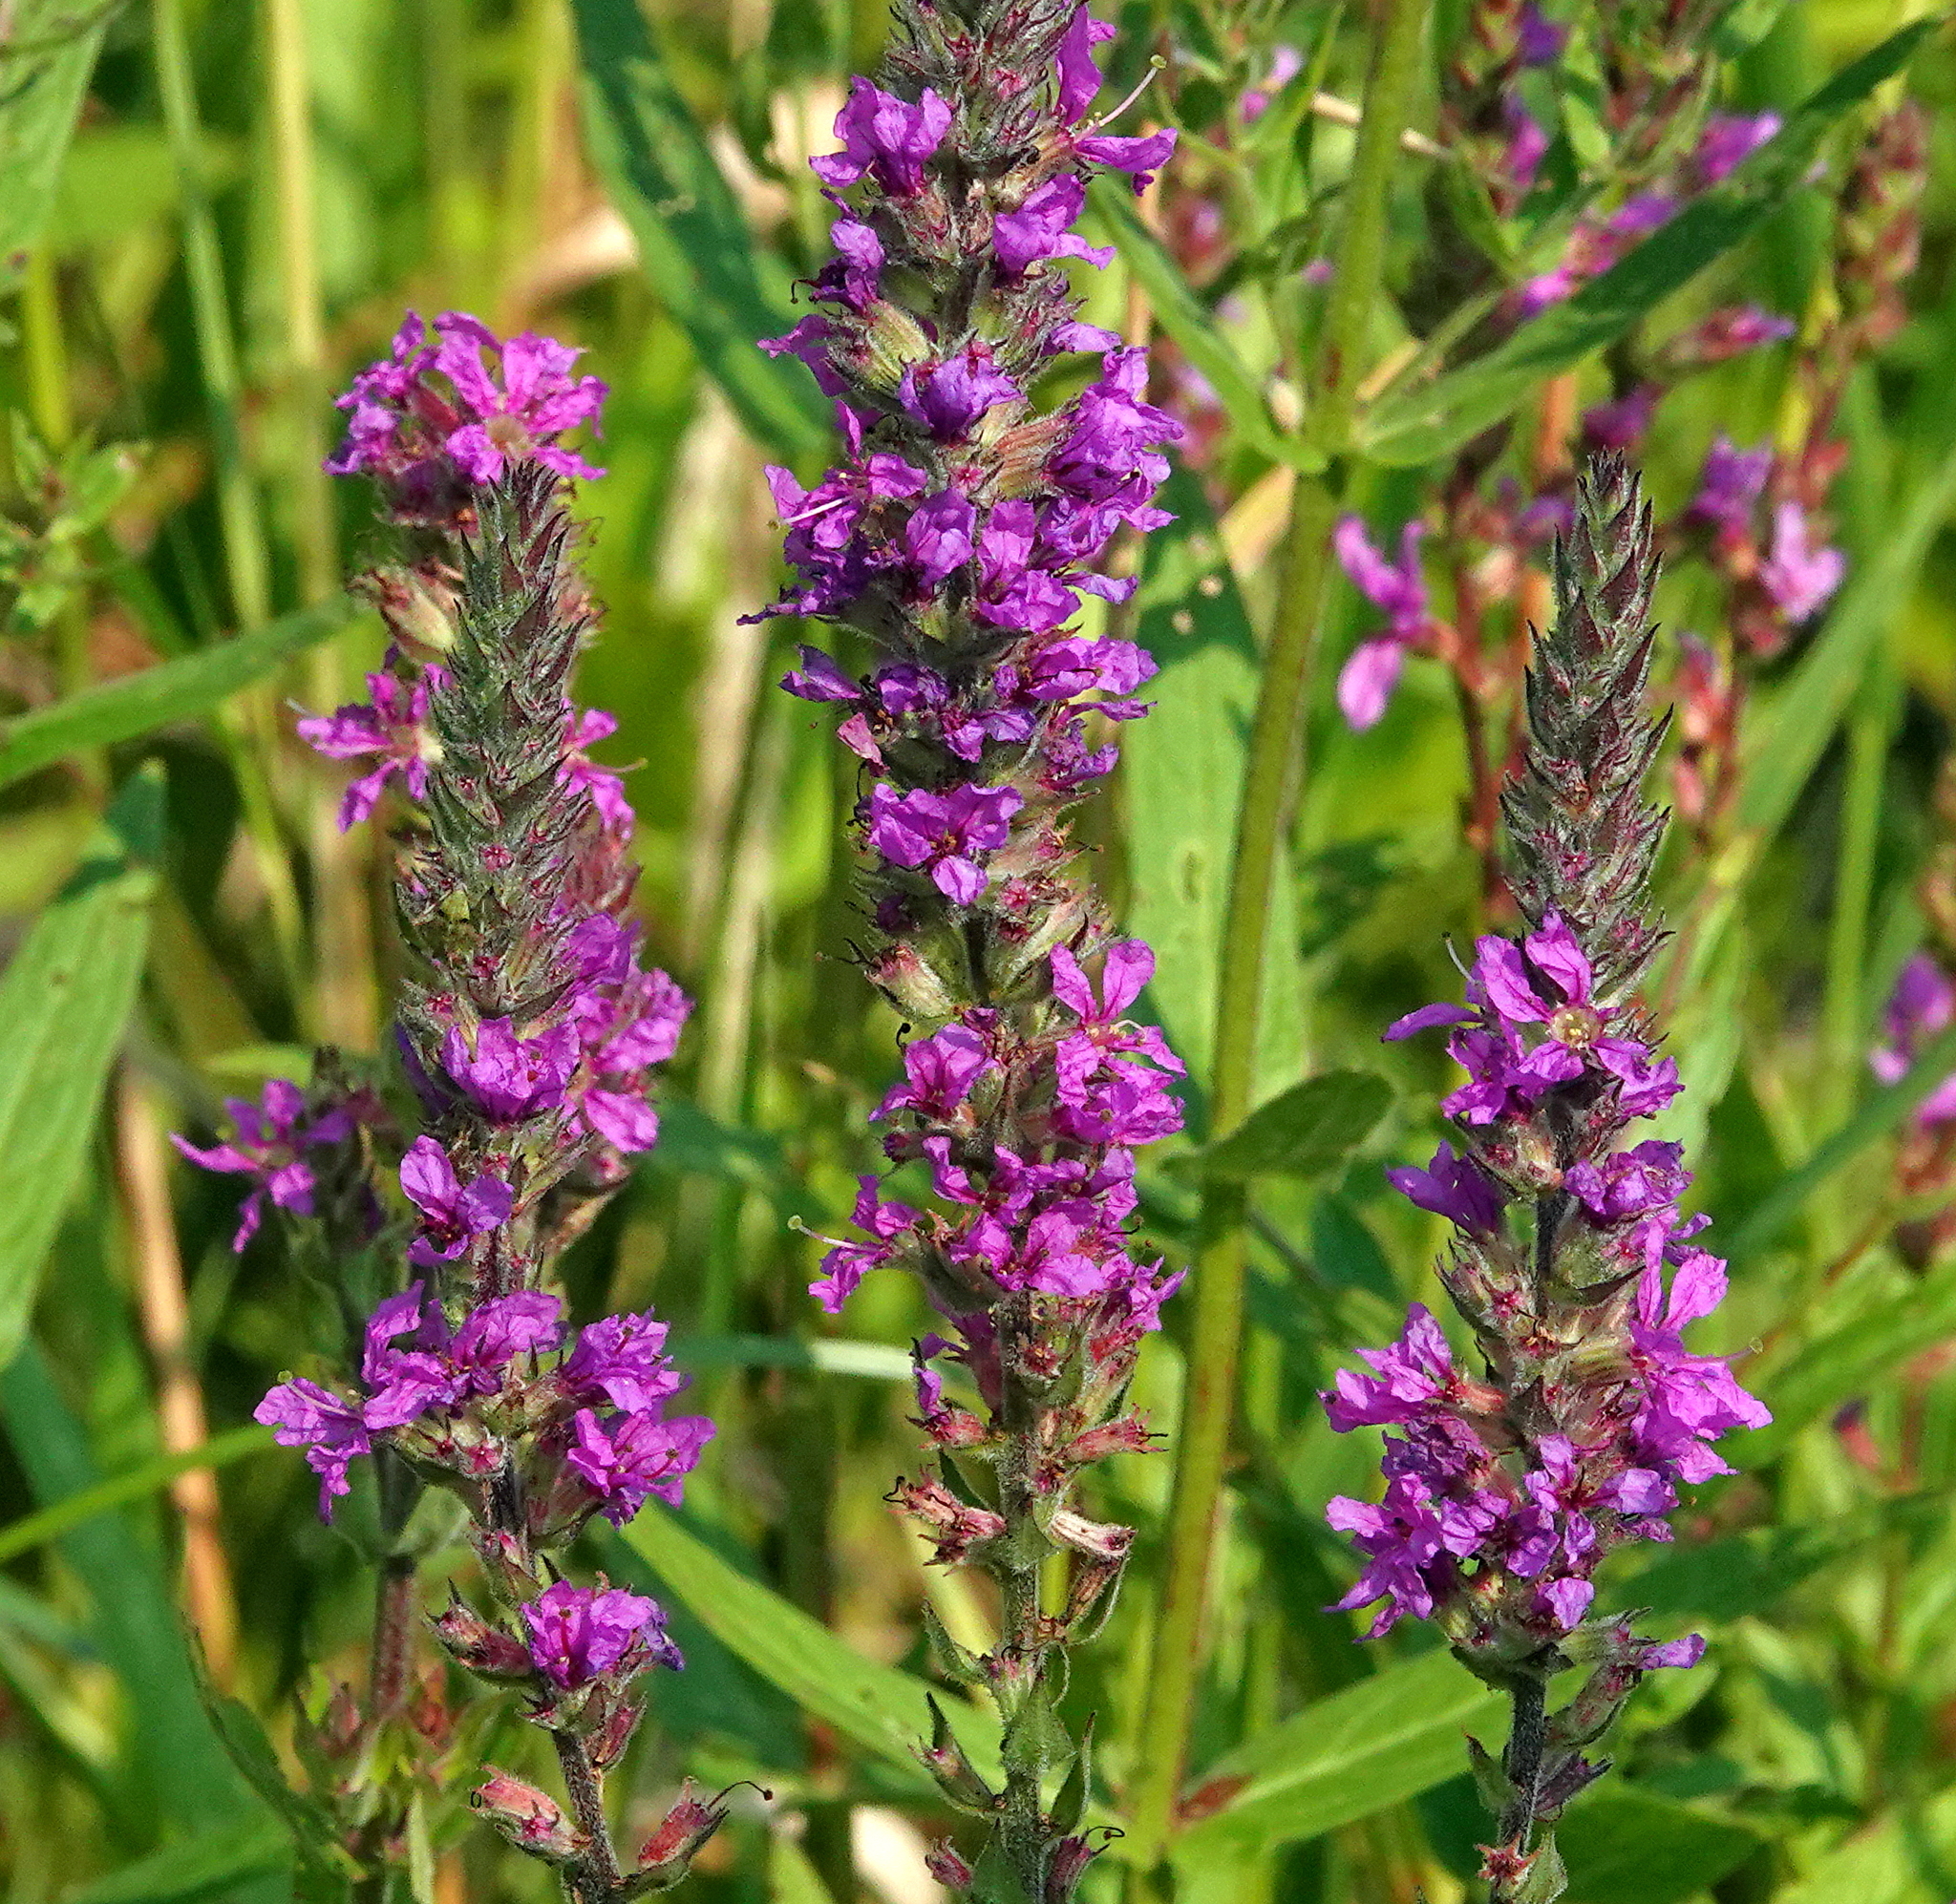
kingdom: Plantae
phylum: Tracheophyta
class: Magnoliopsida
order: Myrtales
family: Lythraceae
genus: Lythrum
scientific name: Lythrum salicaria
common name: Purple loosestrife
